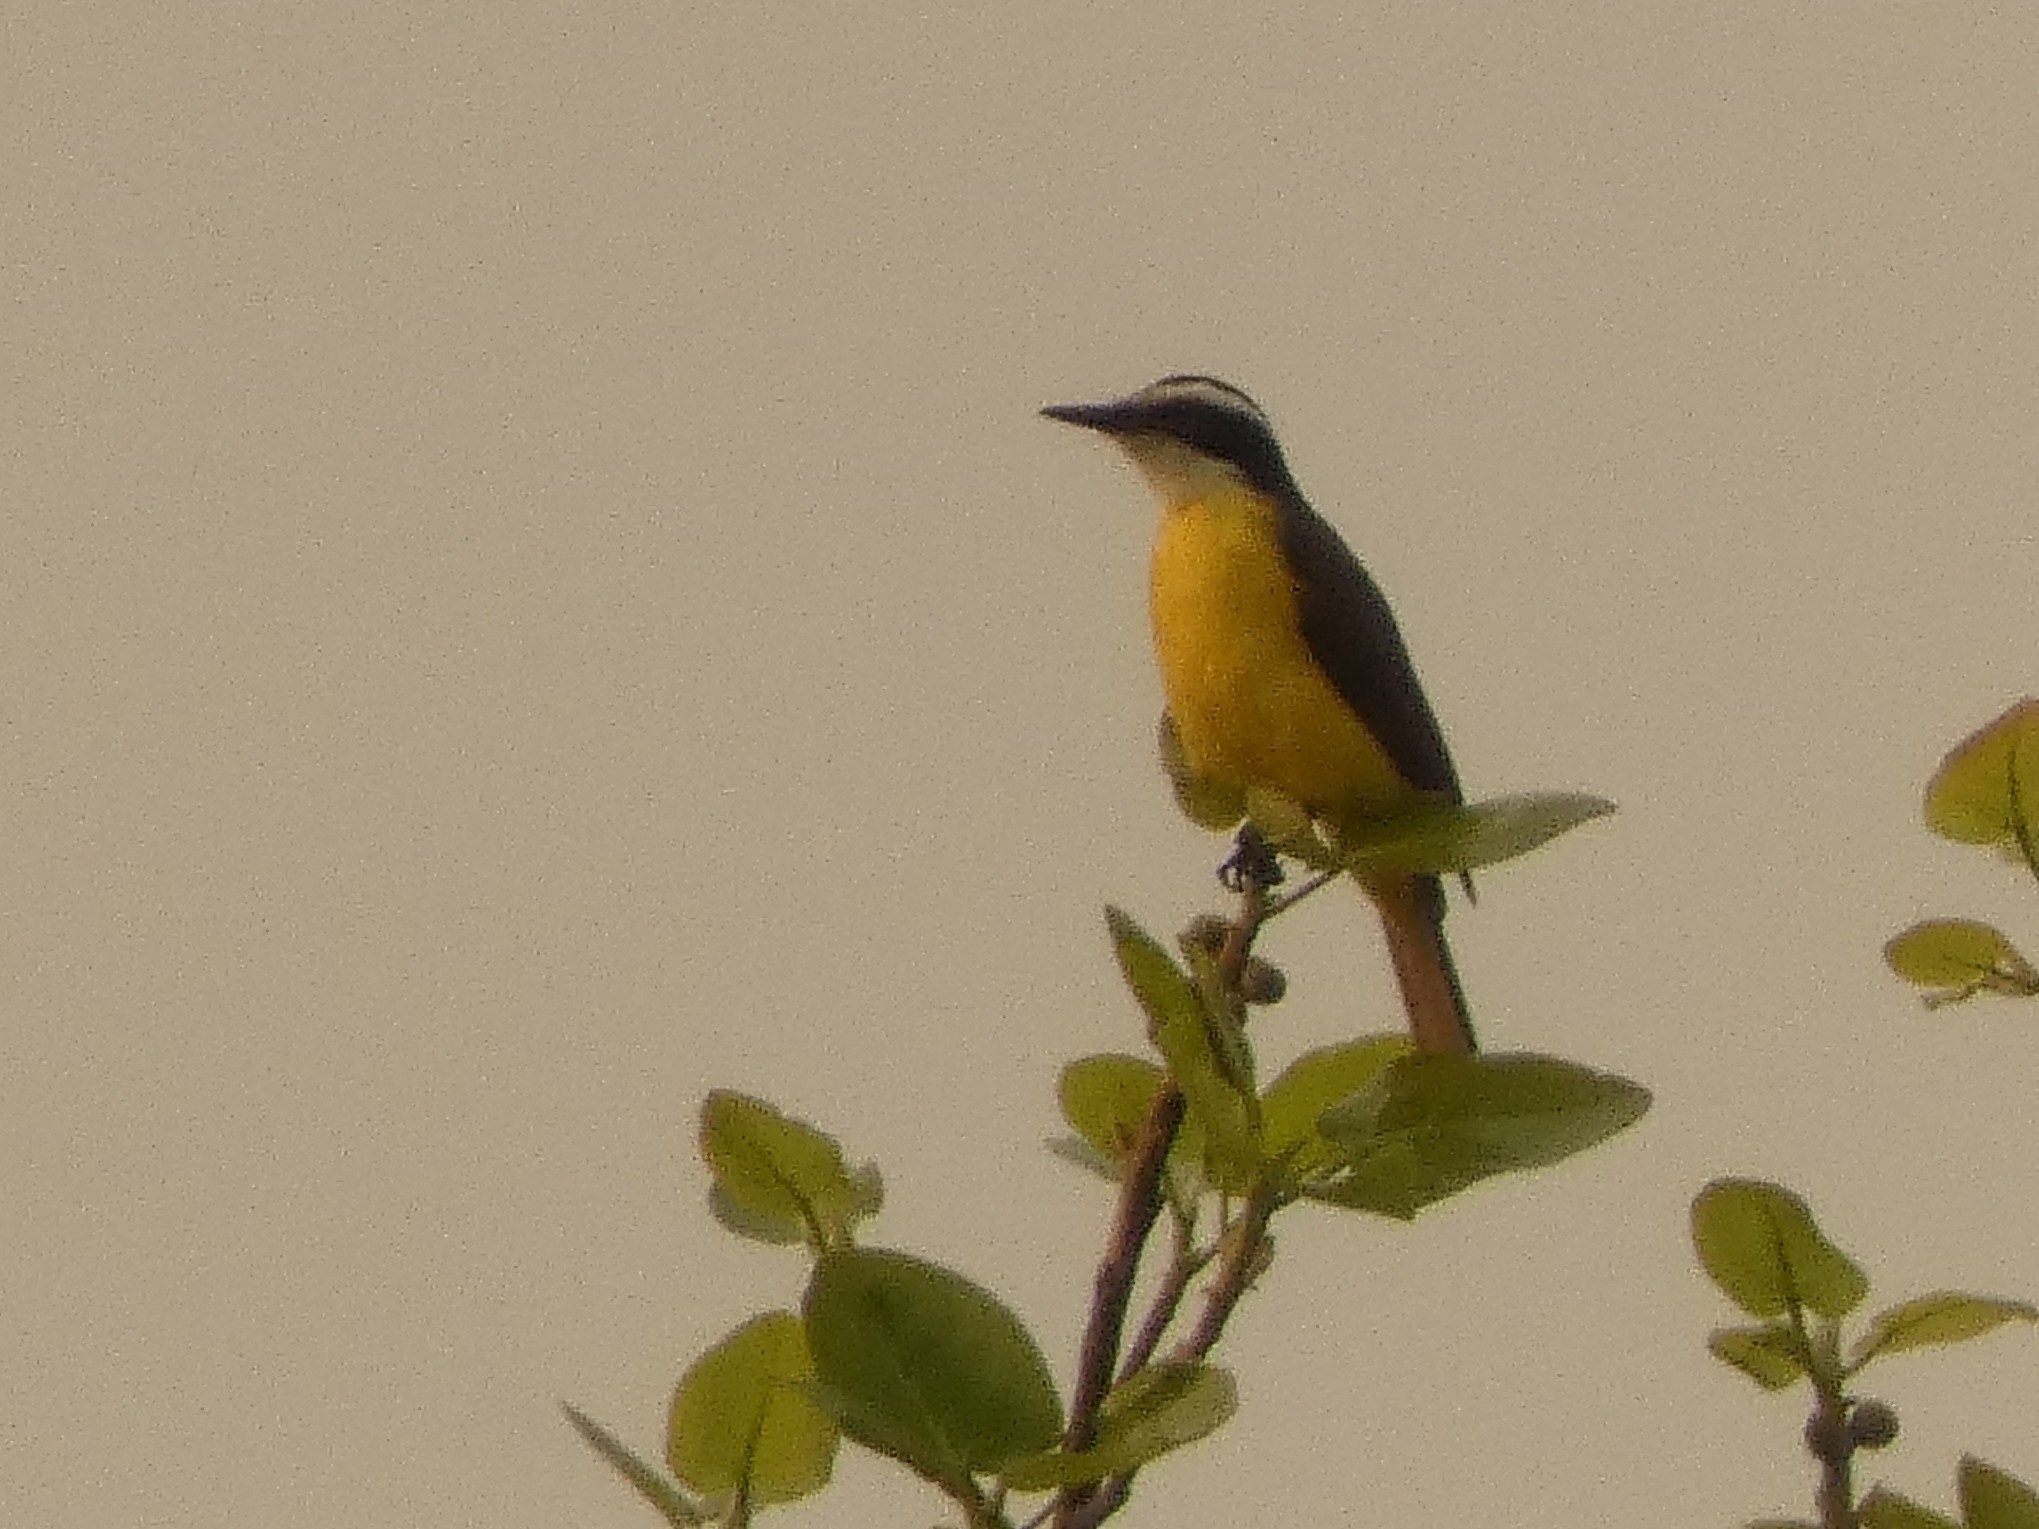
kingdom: Animalia
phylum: Chordata
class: Aves
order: Passeriformes
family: Tyrannidae
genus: Pitangus
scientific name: Pitangus sulphuratus
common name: Great kiskadee
